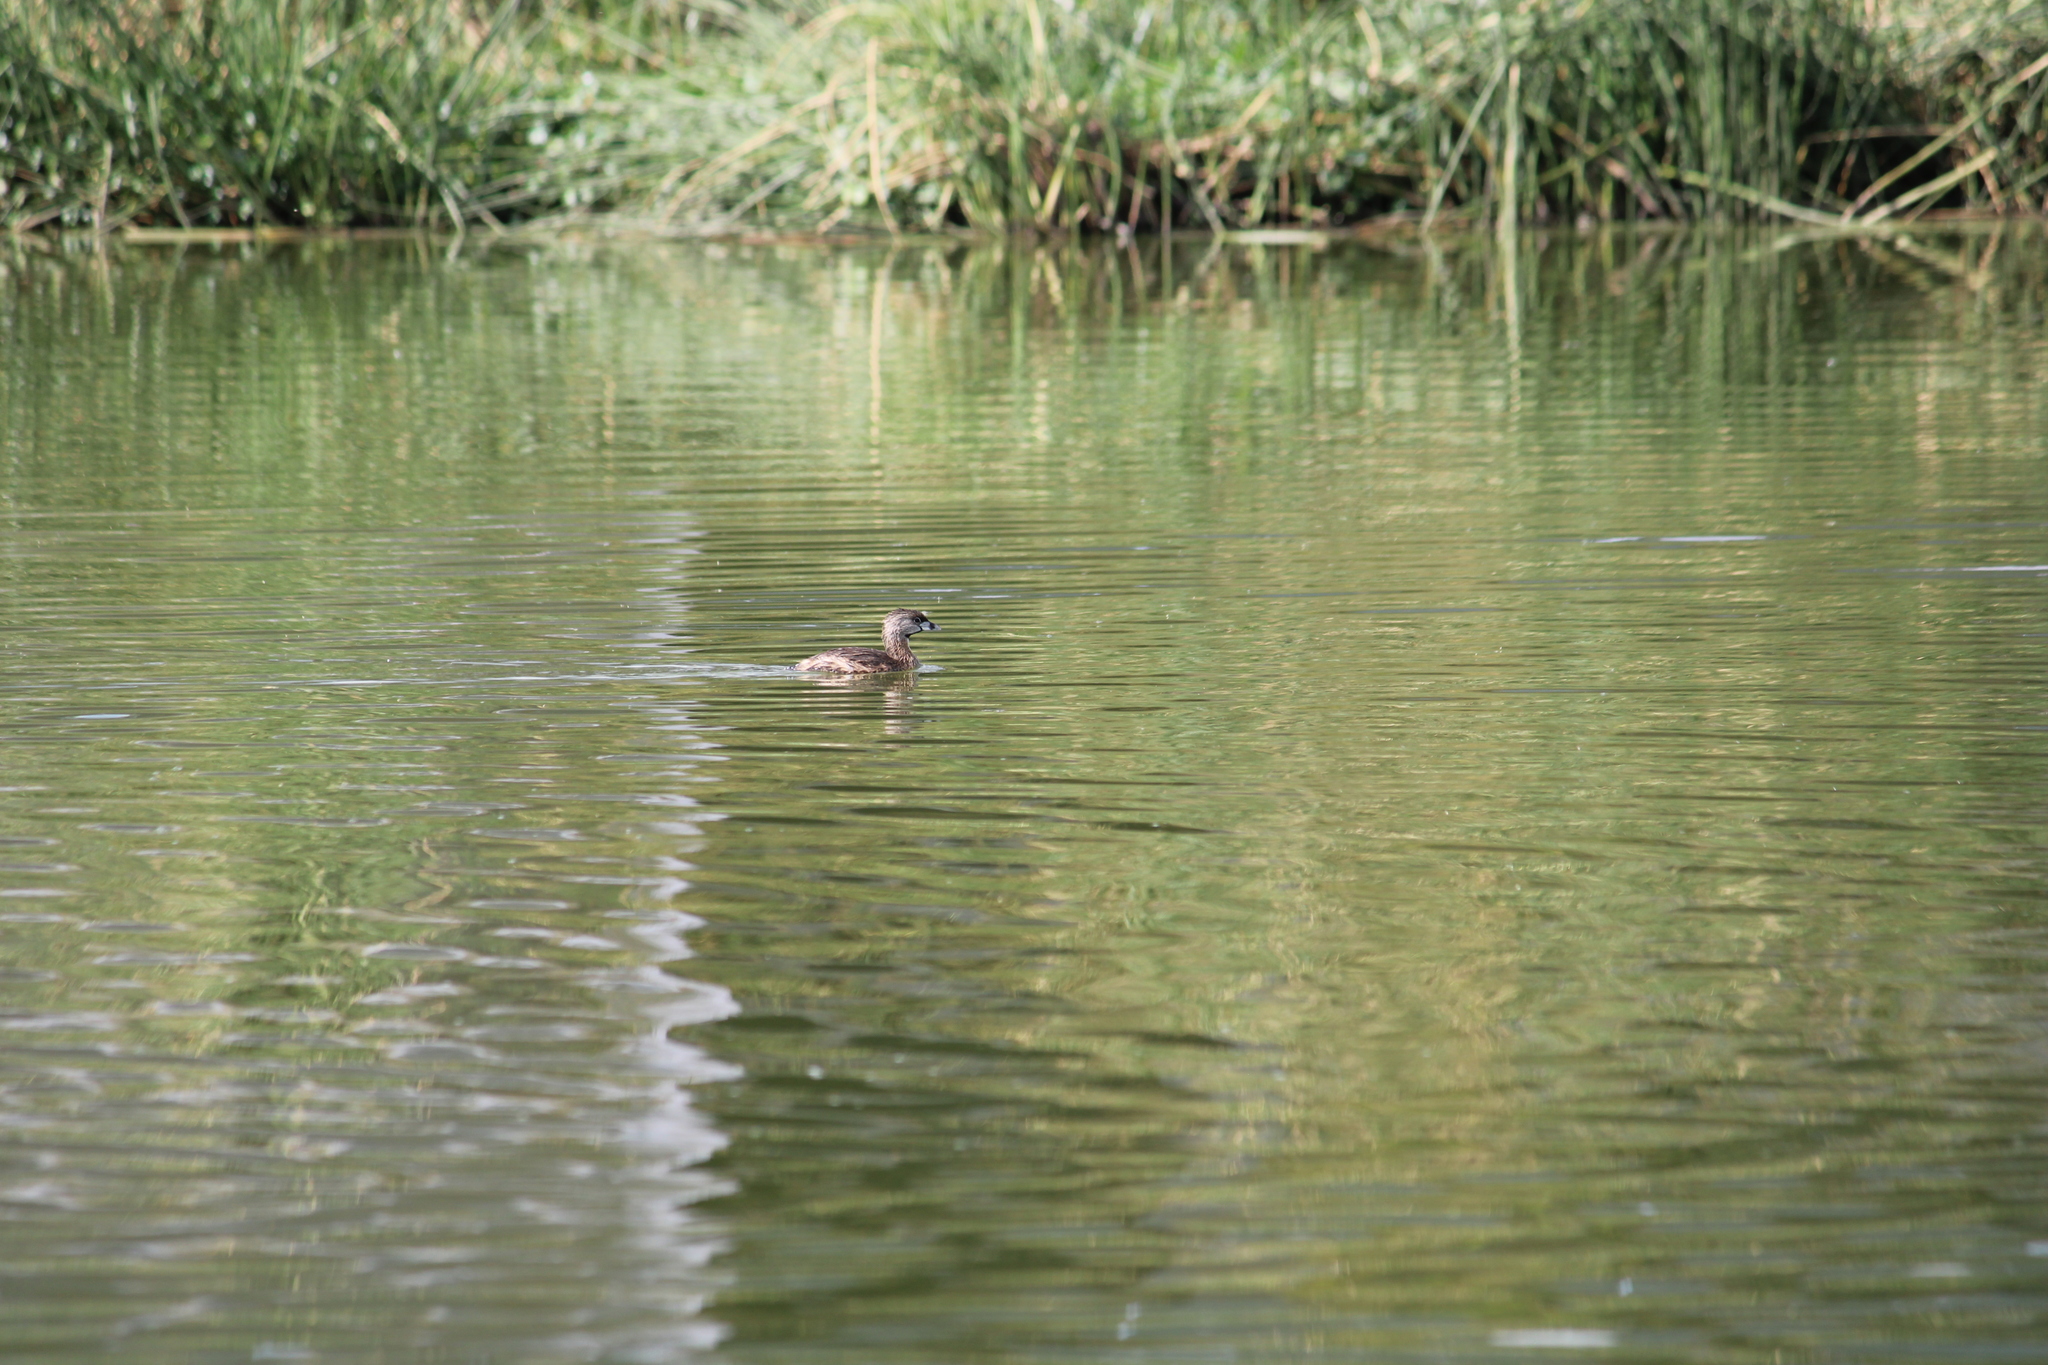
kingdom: Animalia
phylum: Chordata
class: Aves
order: Podicipediformes
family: Podicipedidae
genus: Podilymbus
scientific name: Podilymbus podiceps
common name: Pied-billed grebe
